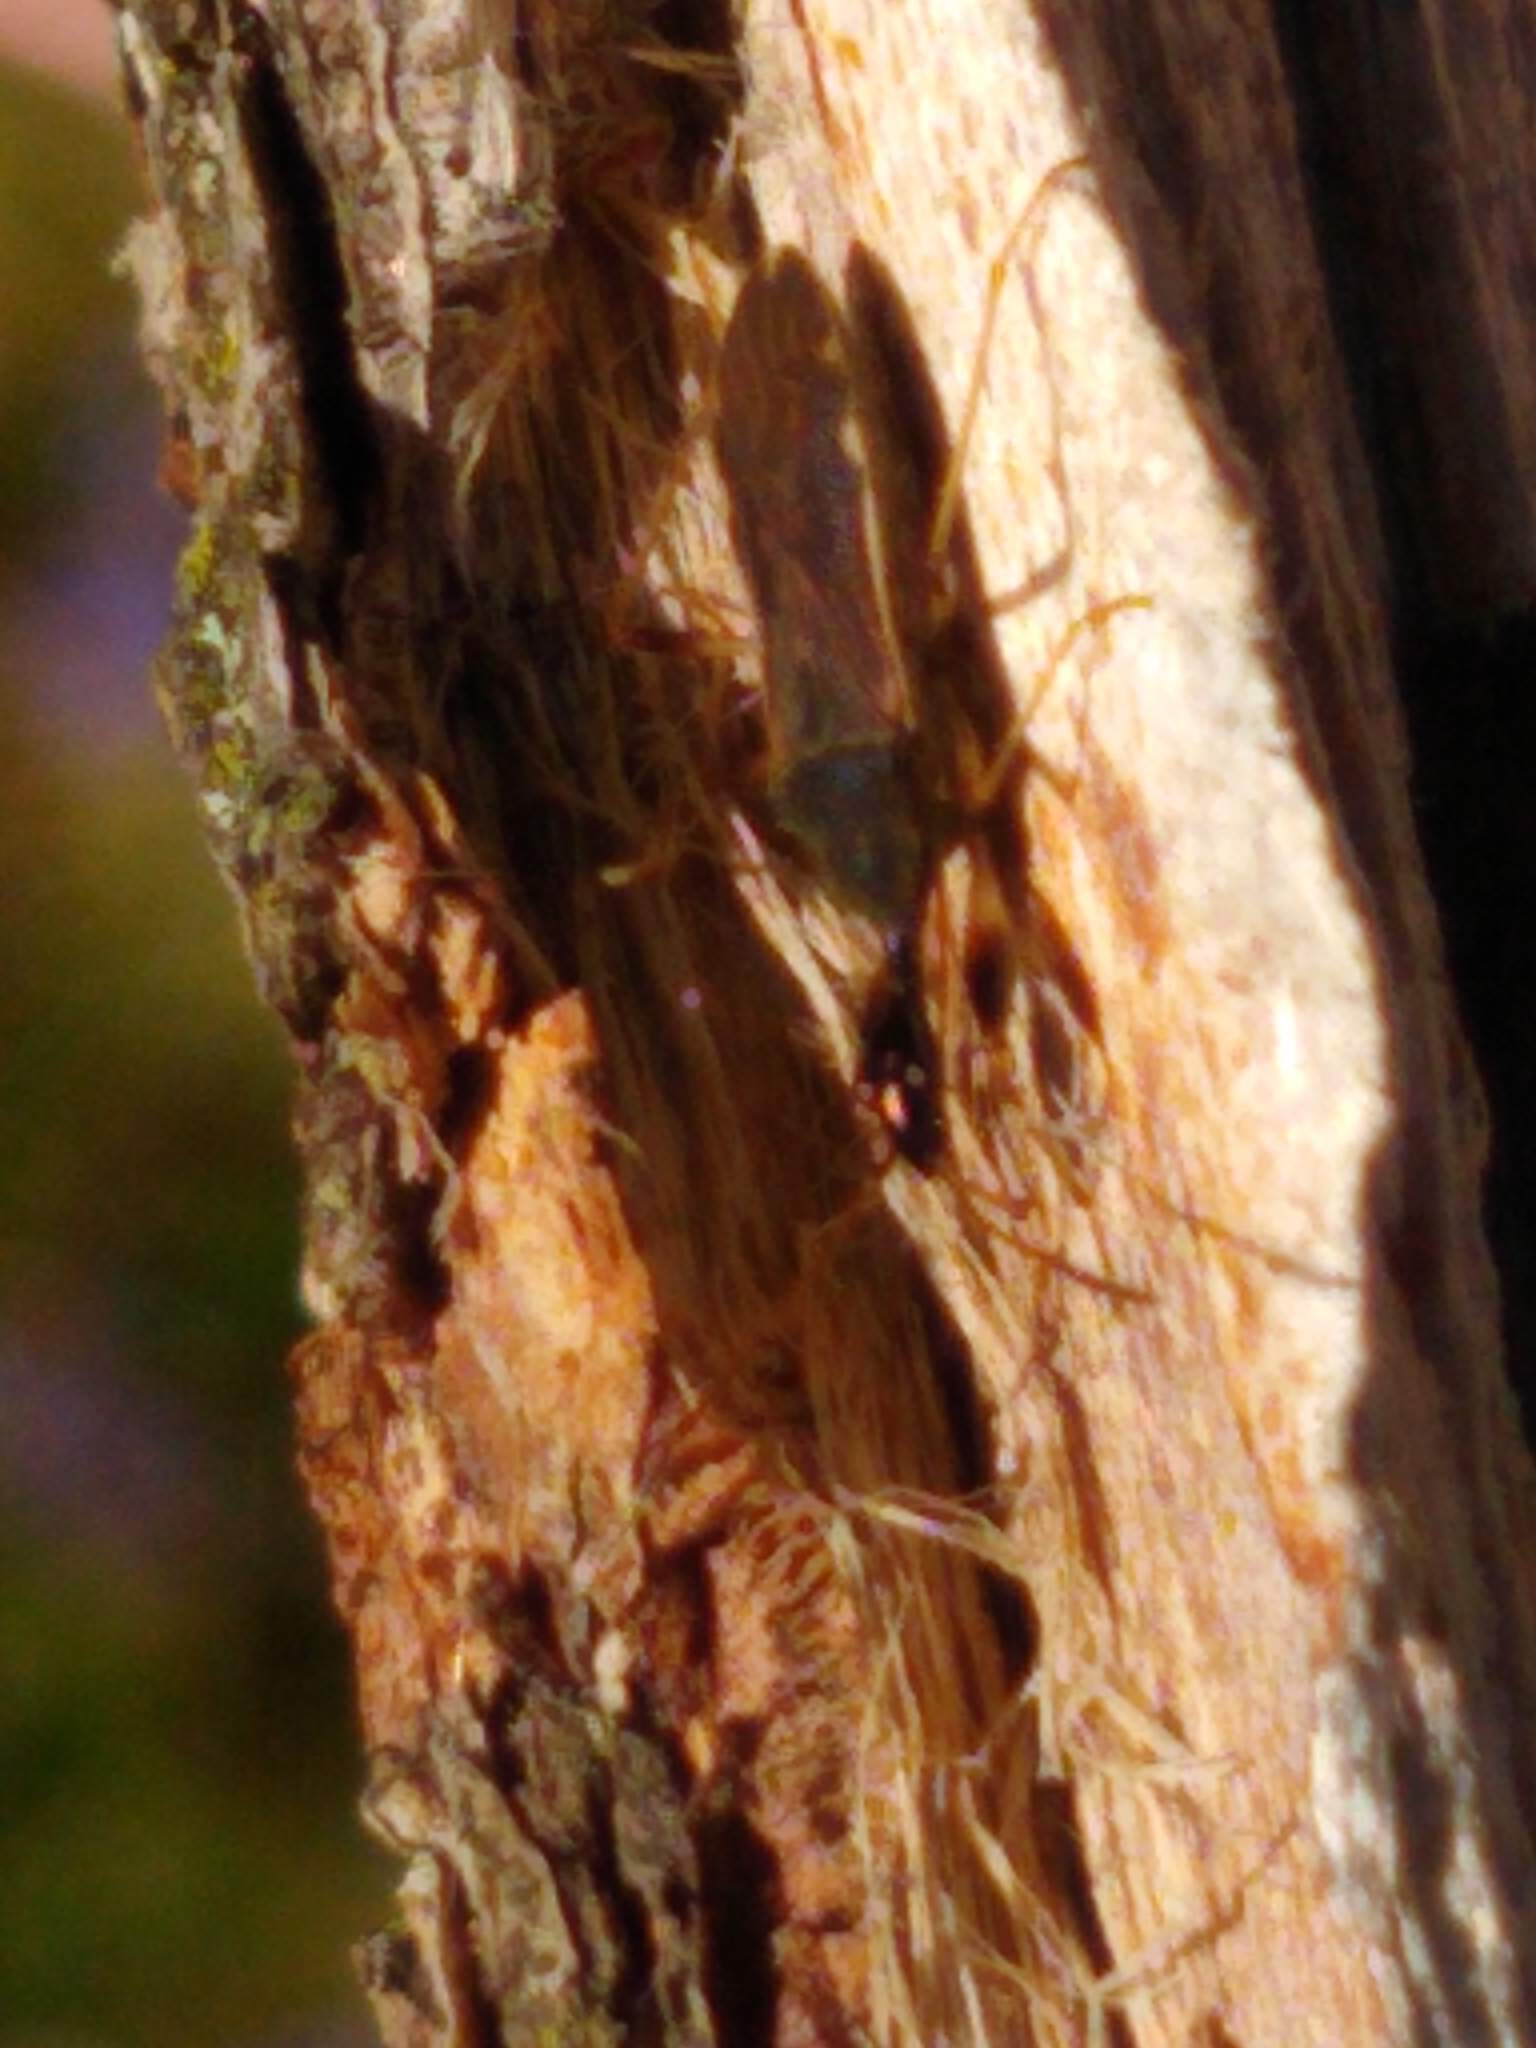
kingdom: Animalia
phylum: Arthropoda
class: Insecta
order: Hemiptera
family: Rhyparochromidae
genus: Myodocha
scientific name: Myodocha serripes
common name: Long-necked seed bug
